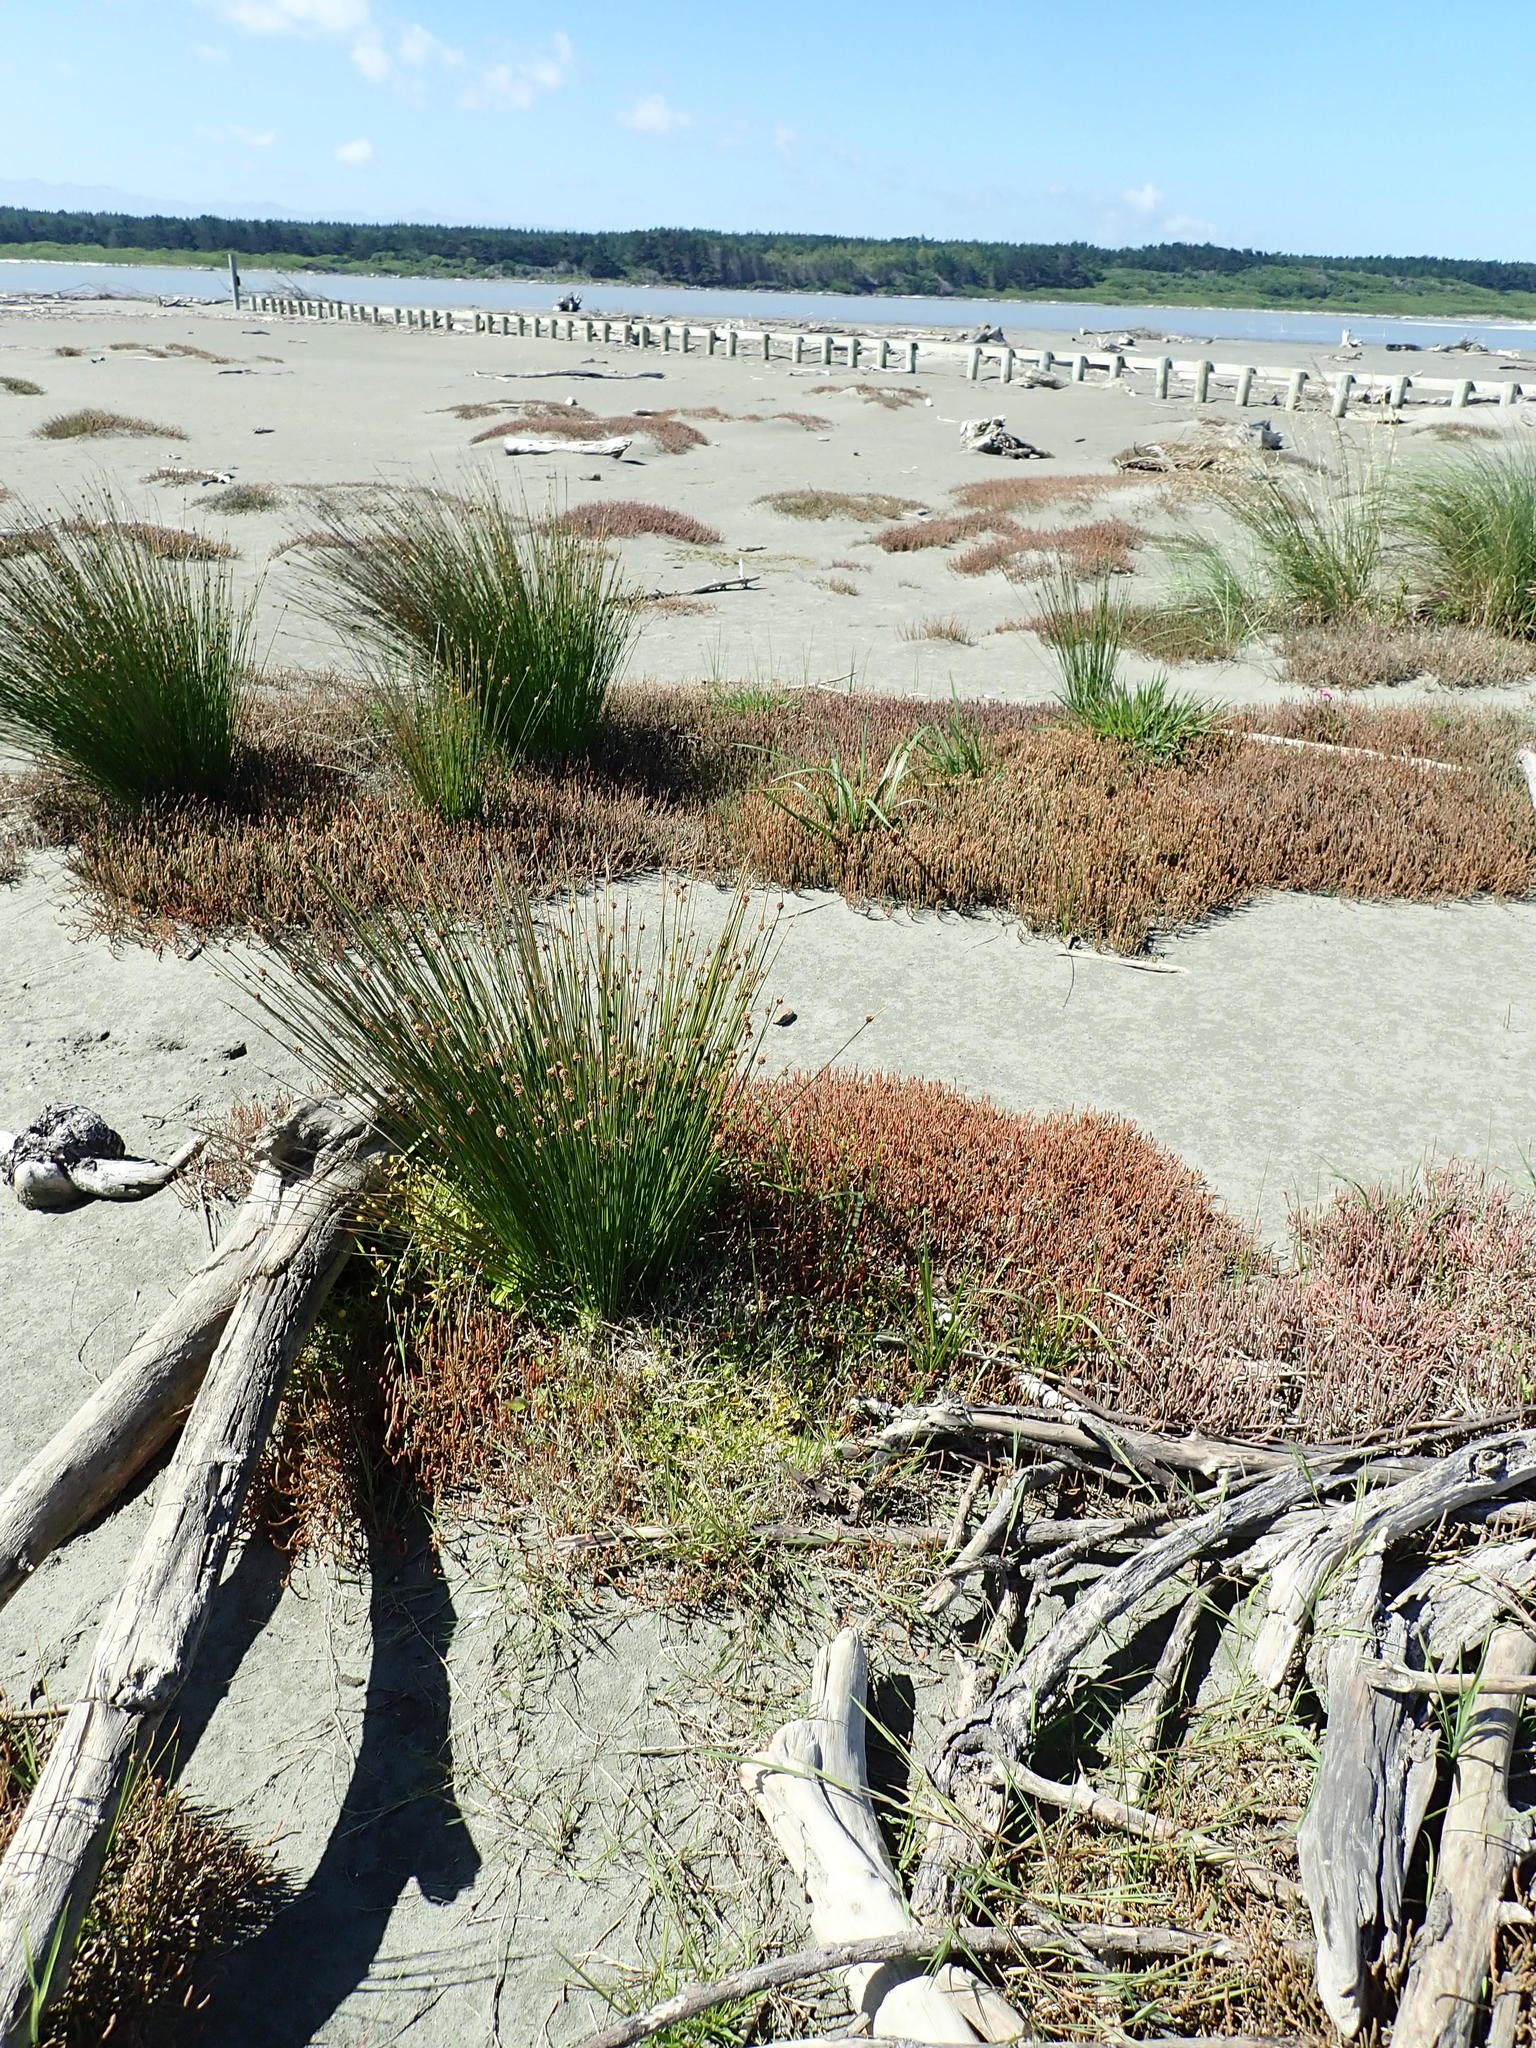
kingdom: Plantae
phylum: Tracheophyta
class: Magnoliopsida
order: Asterales
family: Asteraceae
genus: Cotula
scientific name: Cotula coronopifolia
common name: Buttonweed
